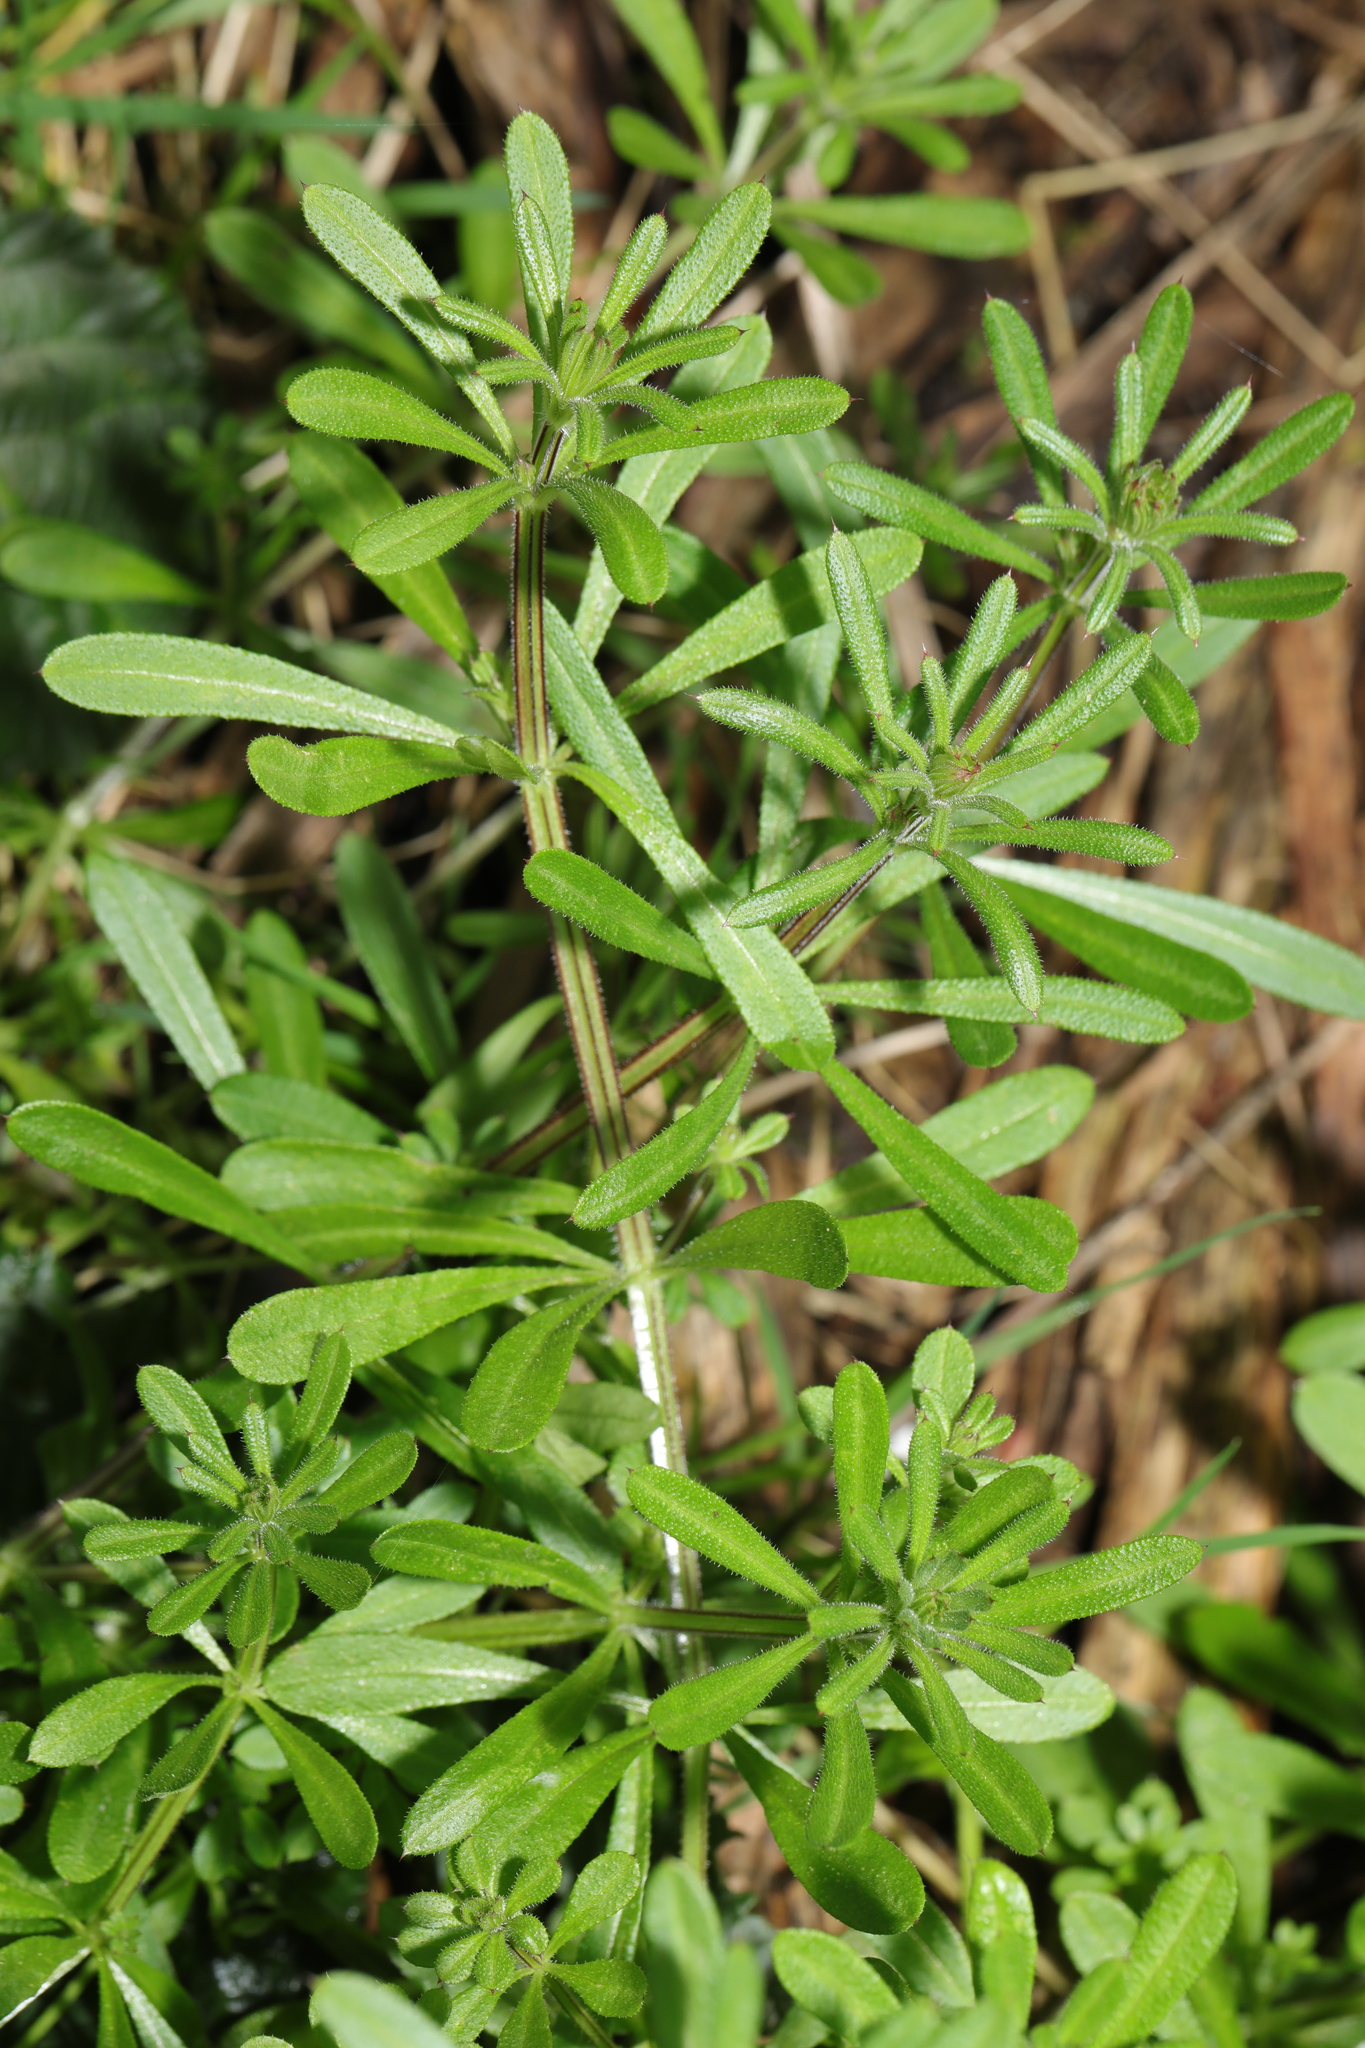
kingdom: Plantae
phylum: Tracheophyta
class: Magnoliopsida
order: Gentianales
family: Rubiaceae
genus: Galium
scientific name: Galium aparine
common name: Cleavers
